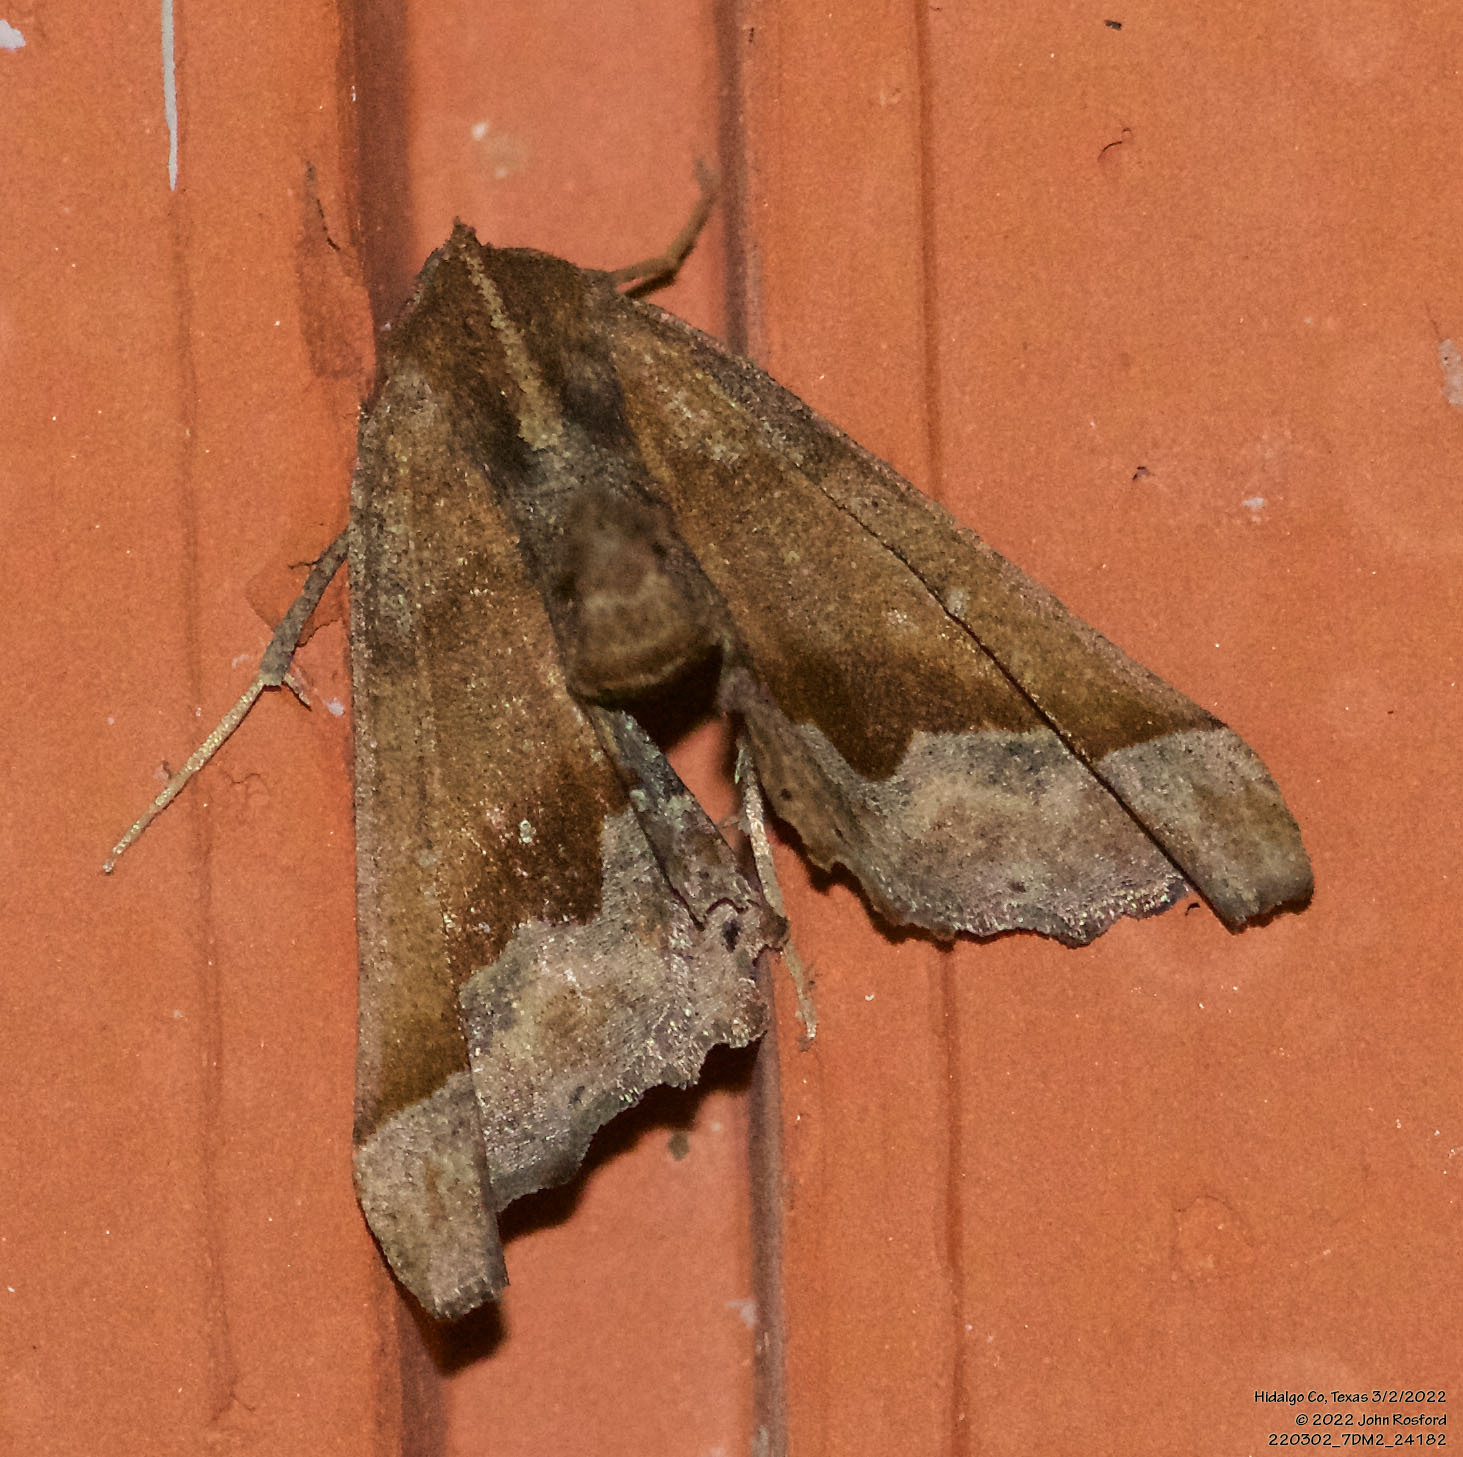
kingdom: Animalia
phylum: Arthropoda
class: Insecta
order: Lepidoptera
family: Geometridae
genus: Pero
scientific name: Pero meskaria
